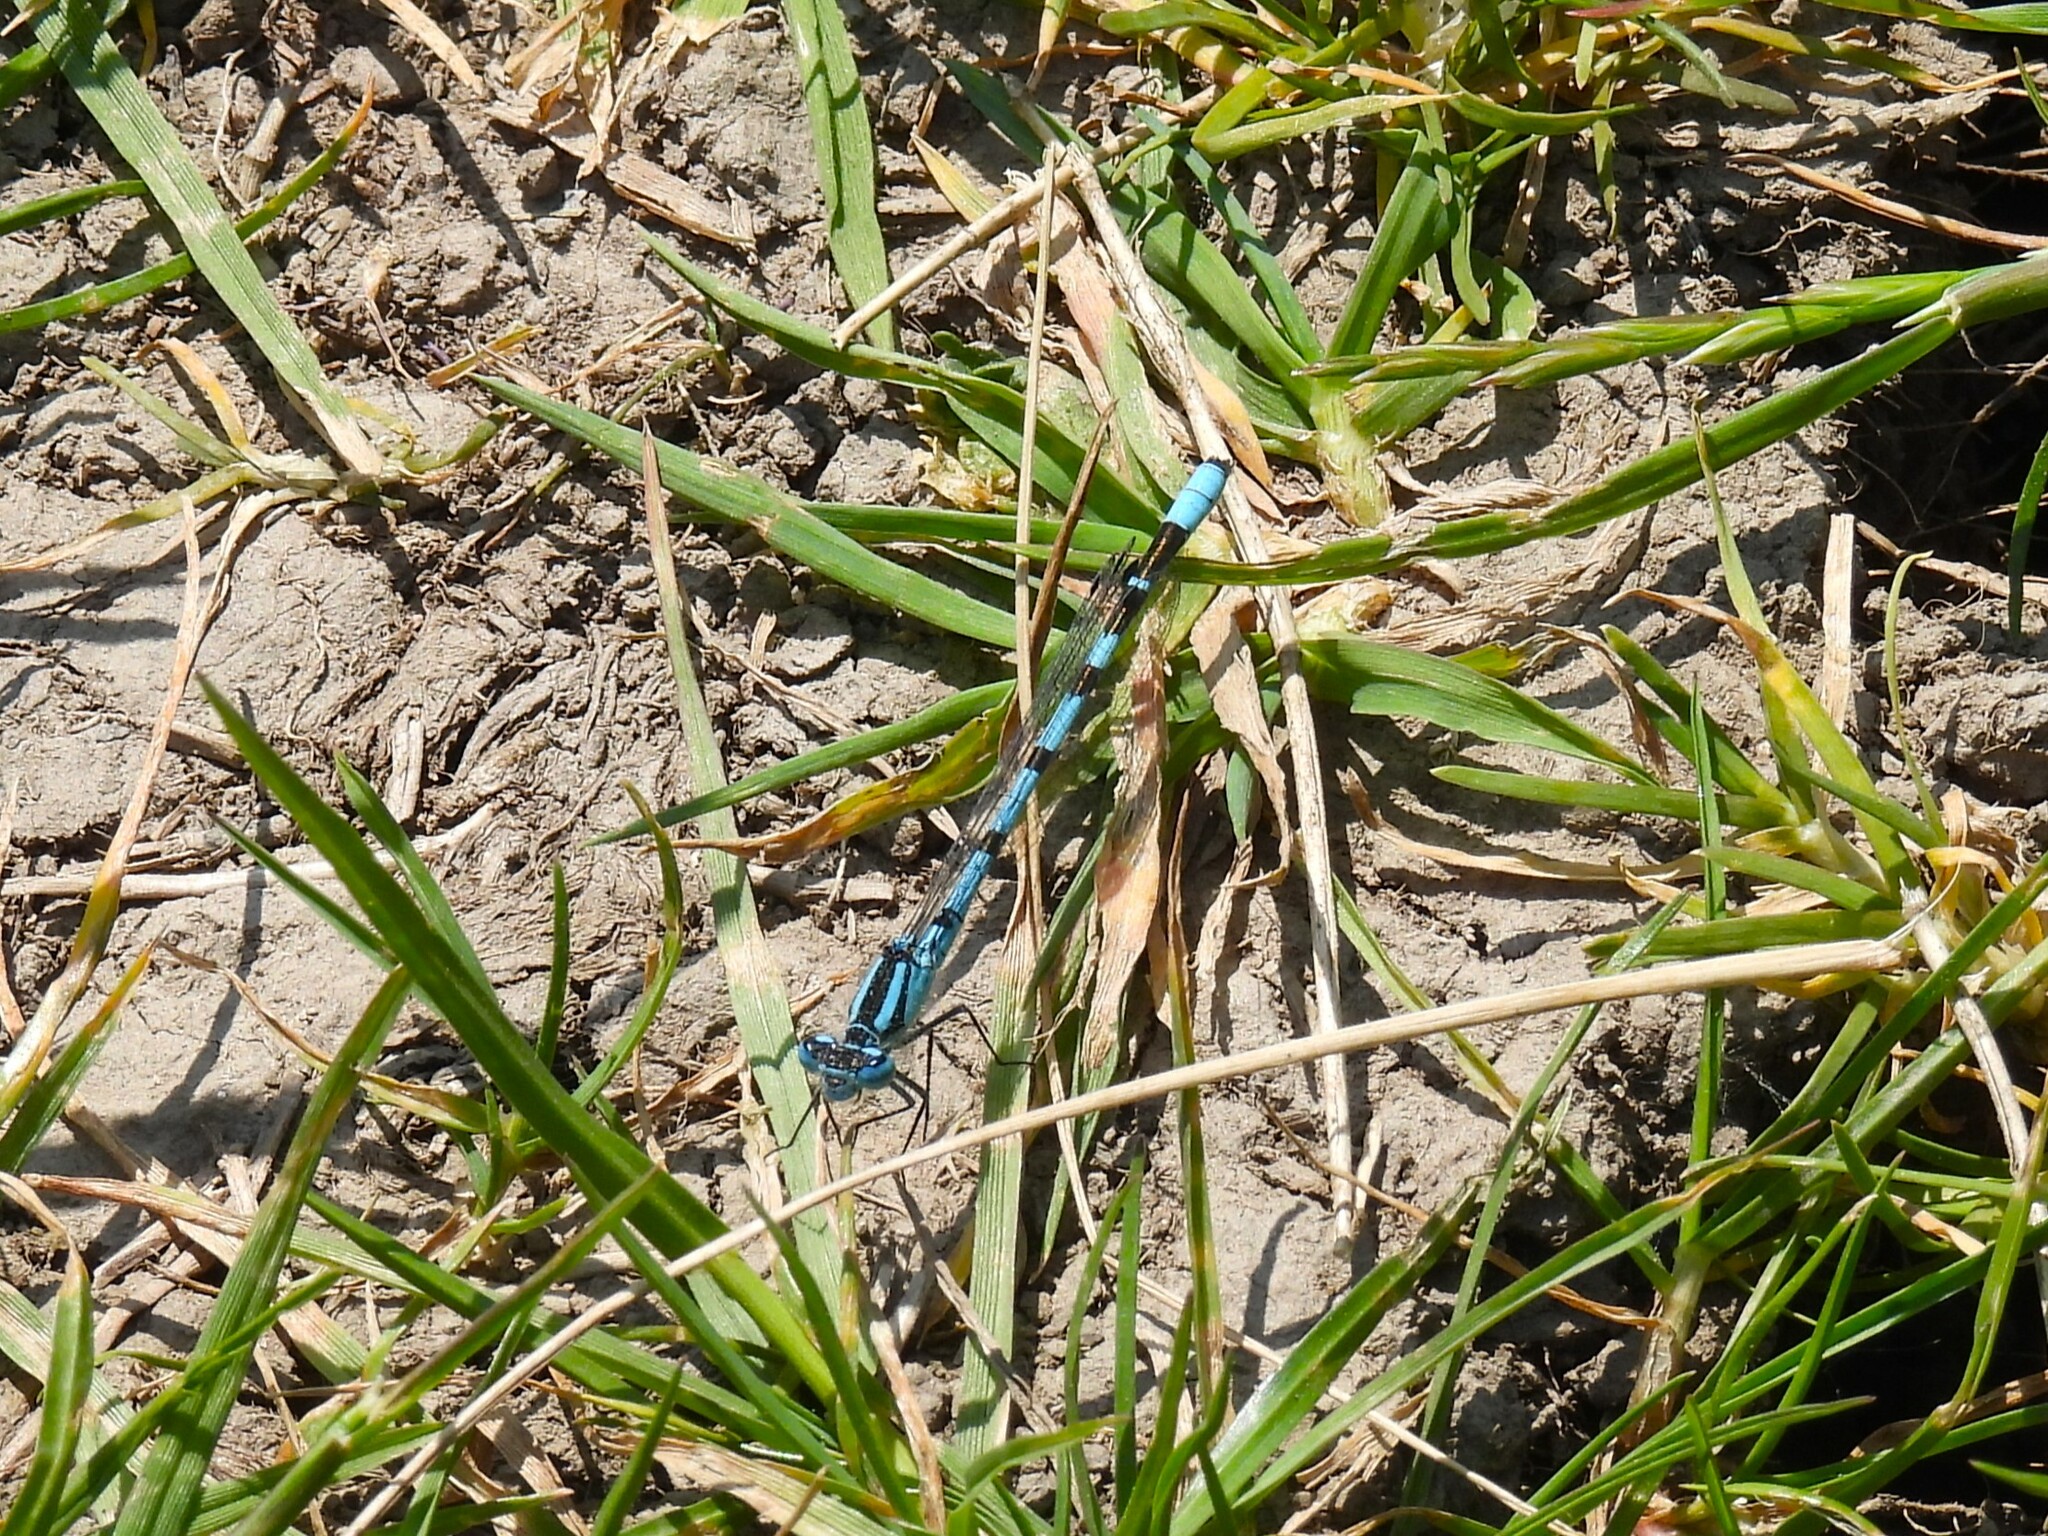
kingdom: Animalia
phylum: Arthropoda
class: Insecta
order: Odonata
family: Coenagrionidae
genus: Enallagma
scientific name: Enallagma cyathigerum
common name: Common blue damselfly
